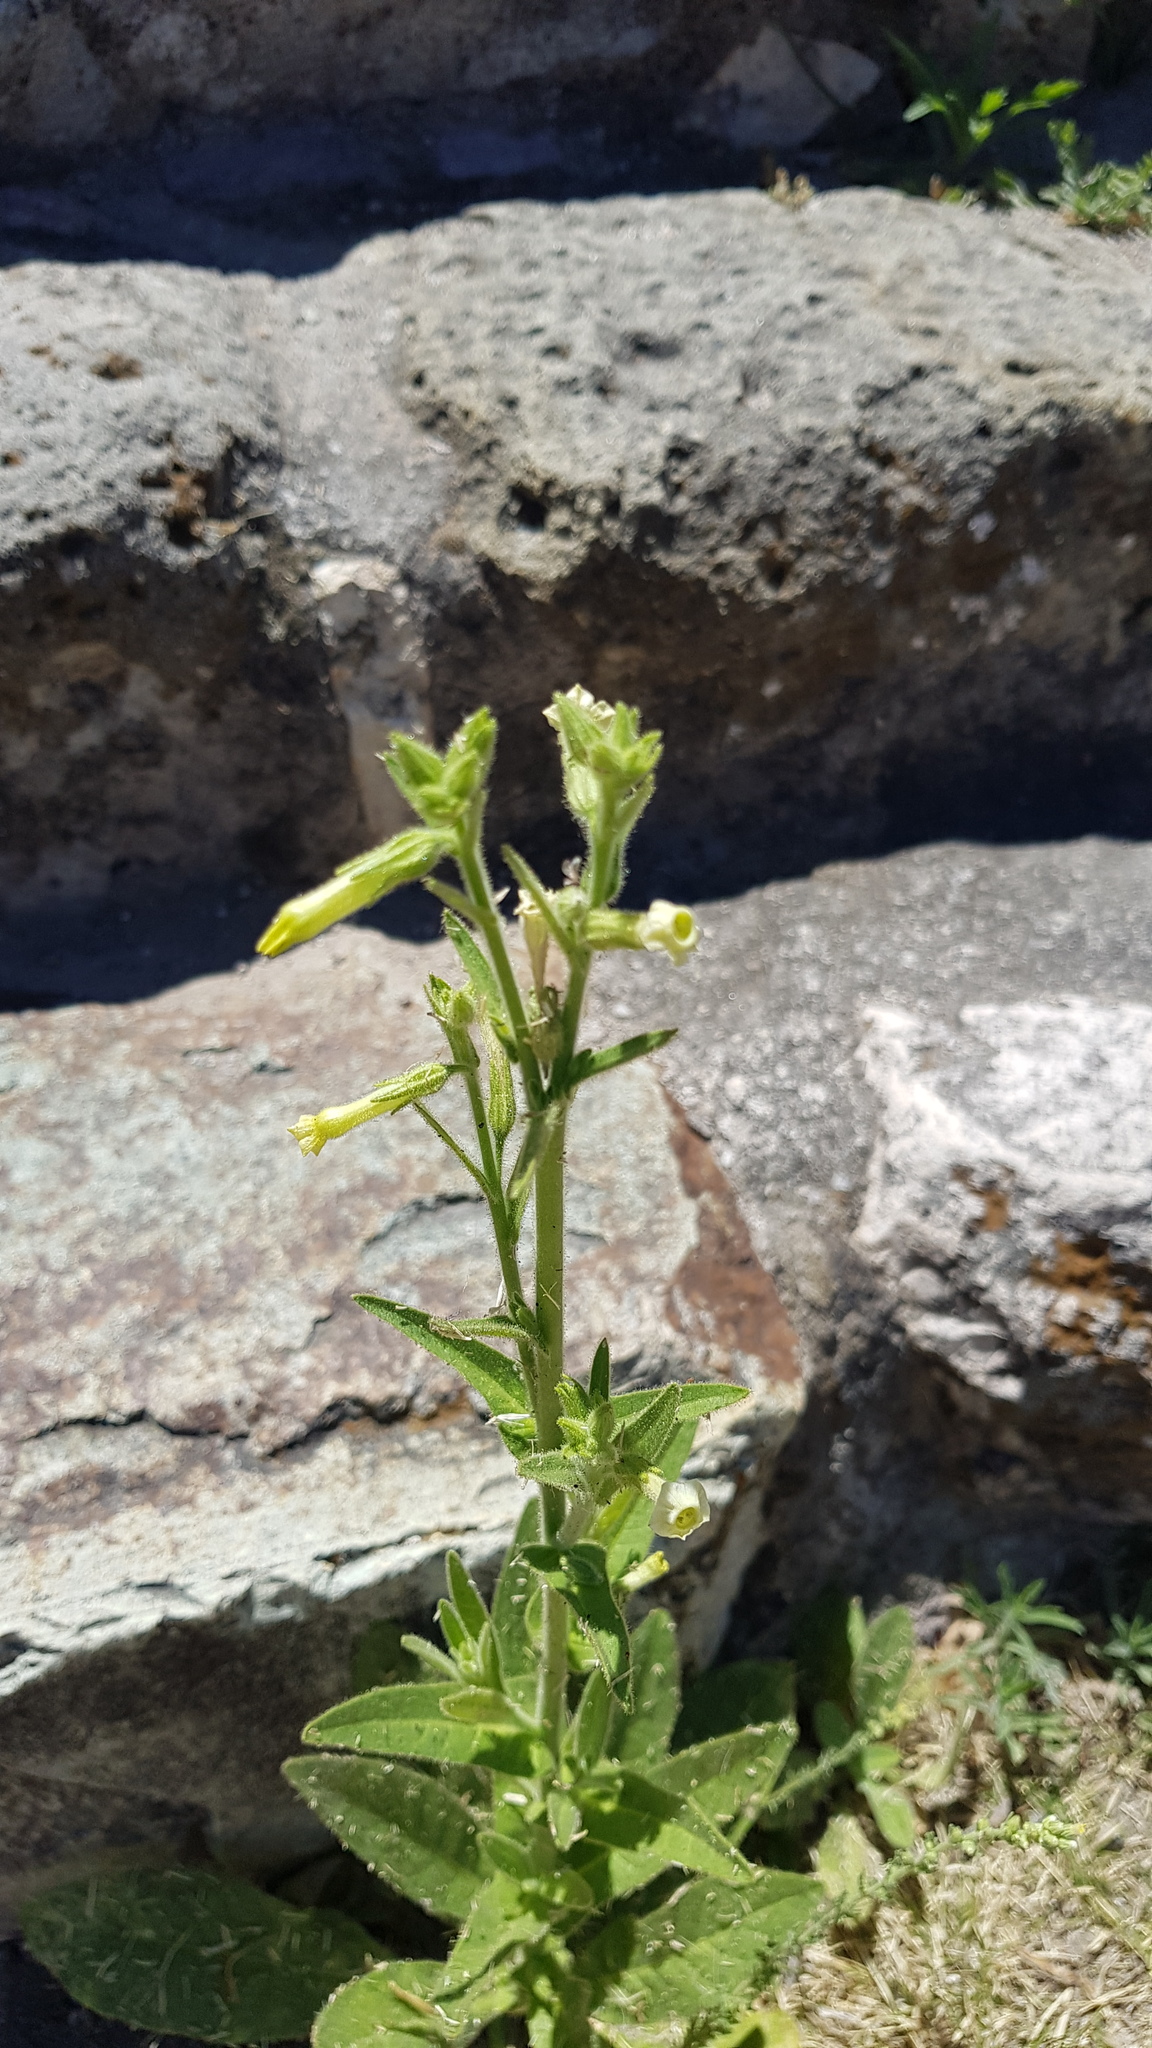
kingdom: Plantae
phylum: Tracheophyta
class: Magnoliopsida
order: Solanales
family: Solanaceae
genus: Nicotiana
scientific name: Nicotiana obtusifolia
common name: Desert tobacco
